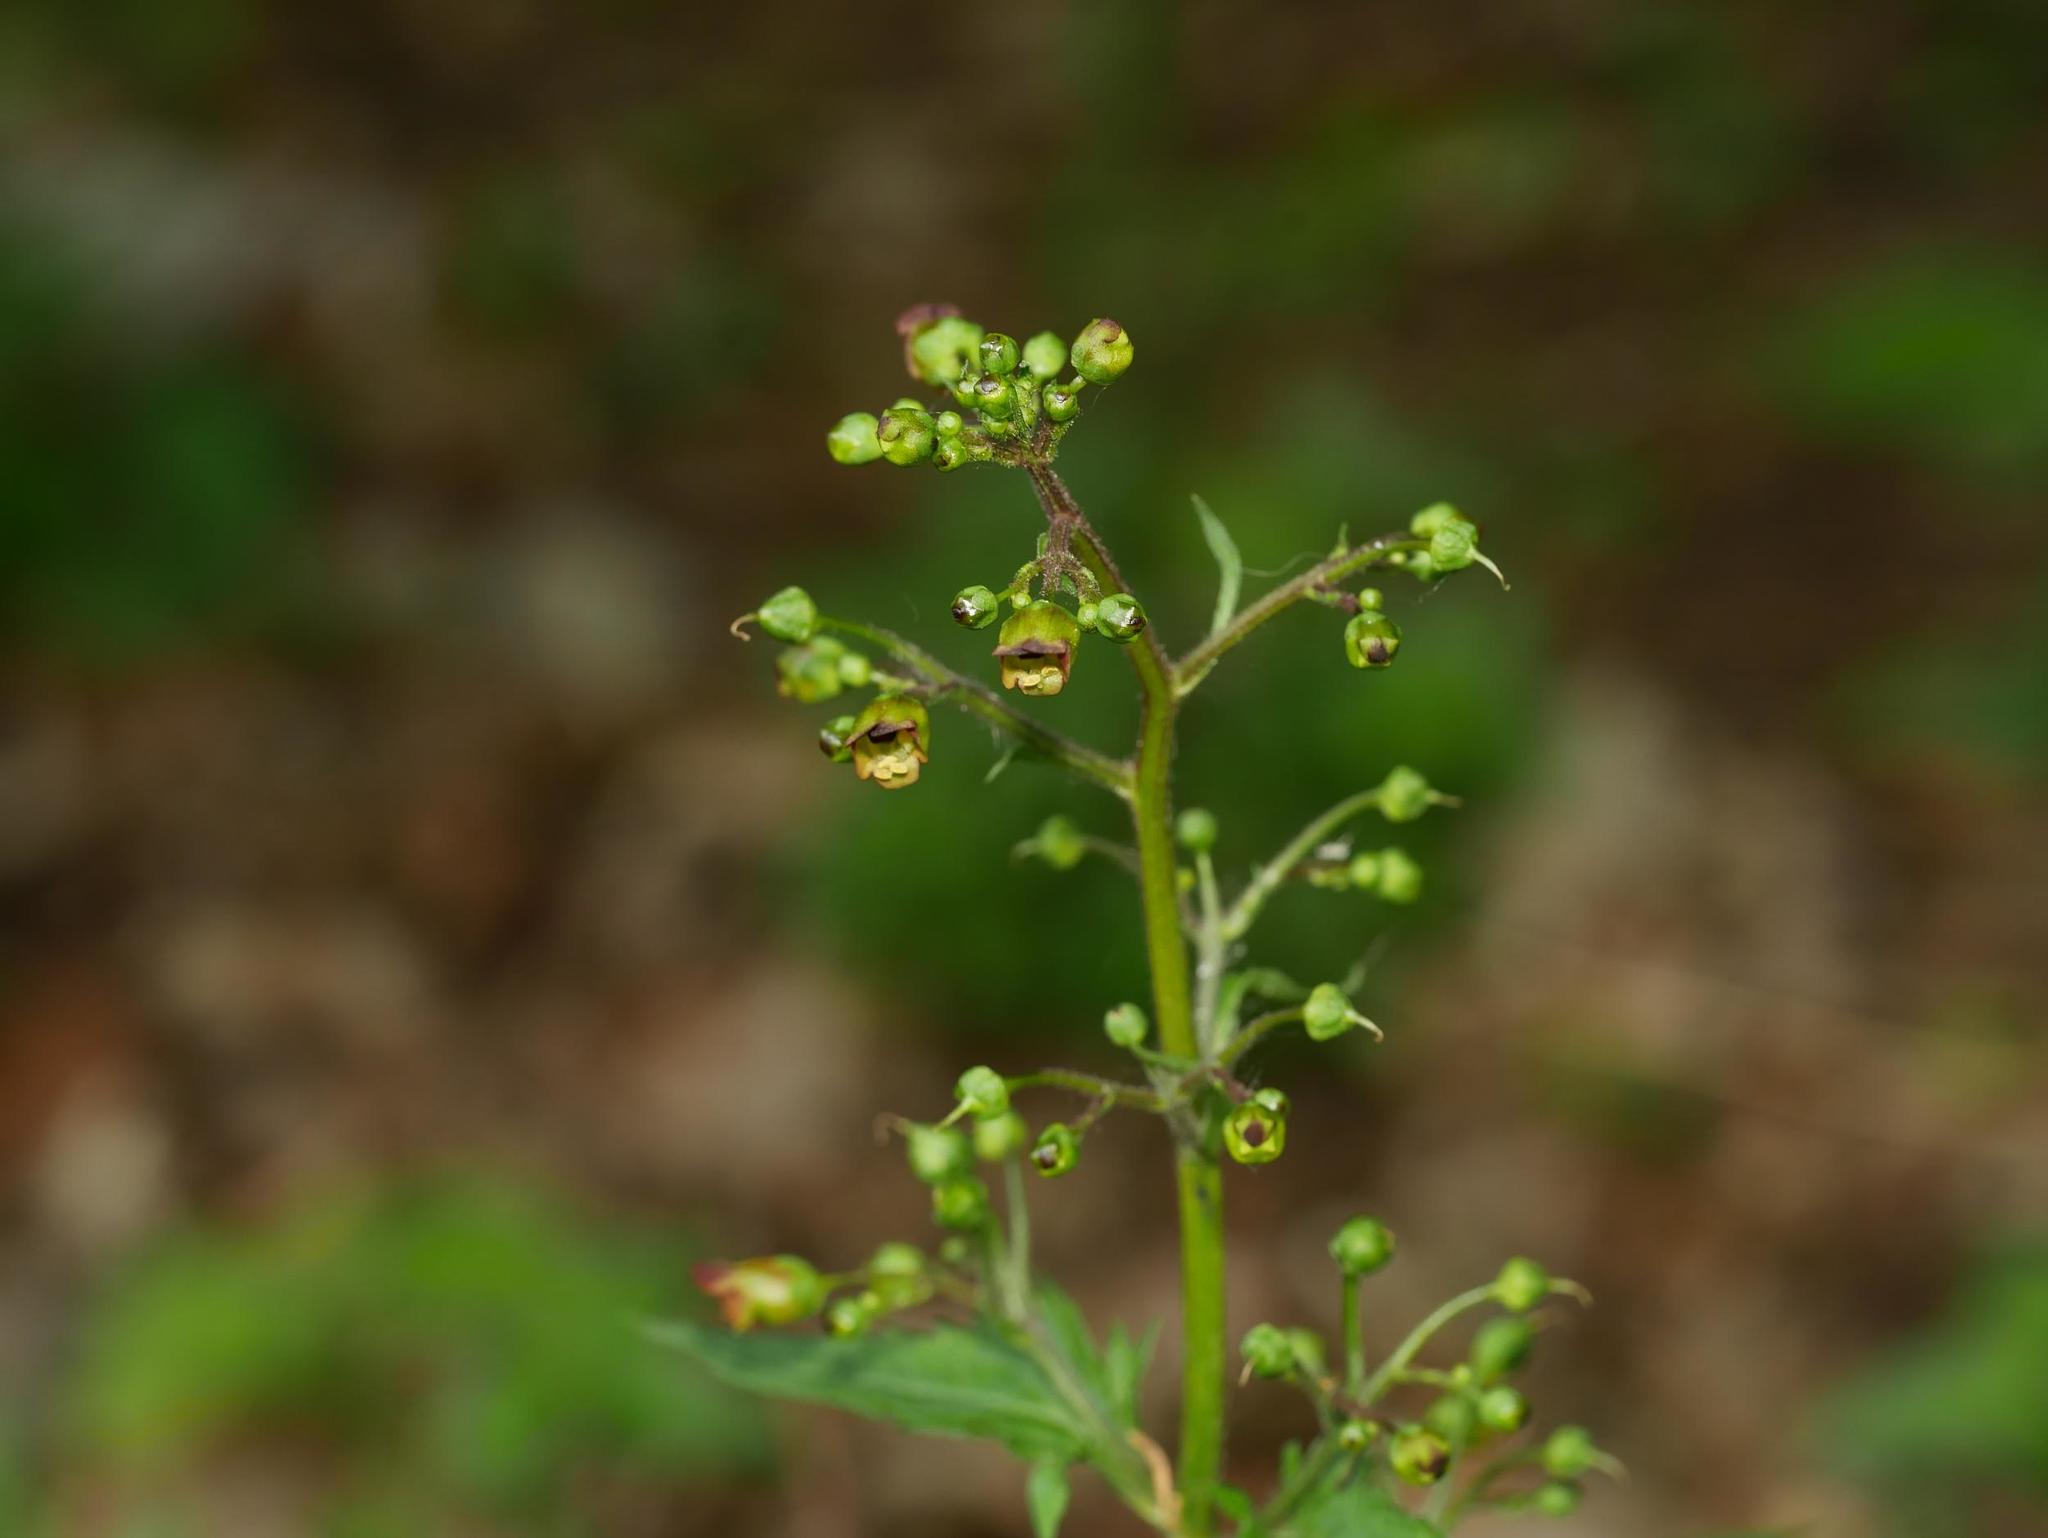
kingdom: Plantae
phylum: Tracheophyta
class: Magnoliopsida
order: Lamiales
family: Scrophulariaceae
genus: Scrophularia
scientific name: Scrophularia nodosa
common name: Common figwort
